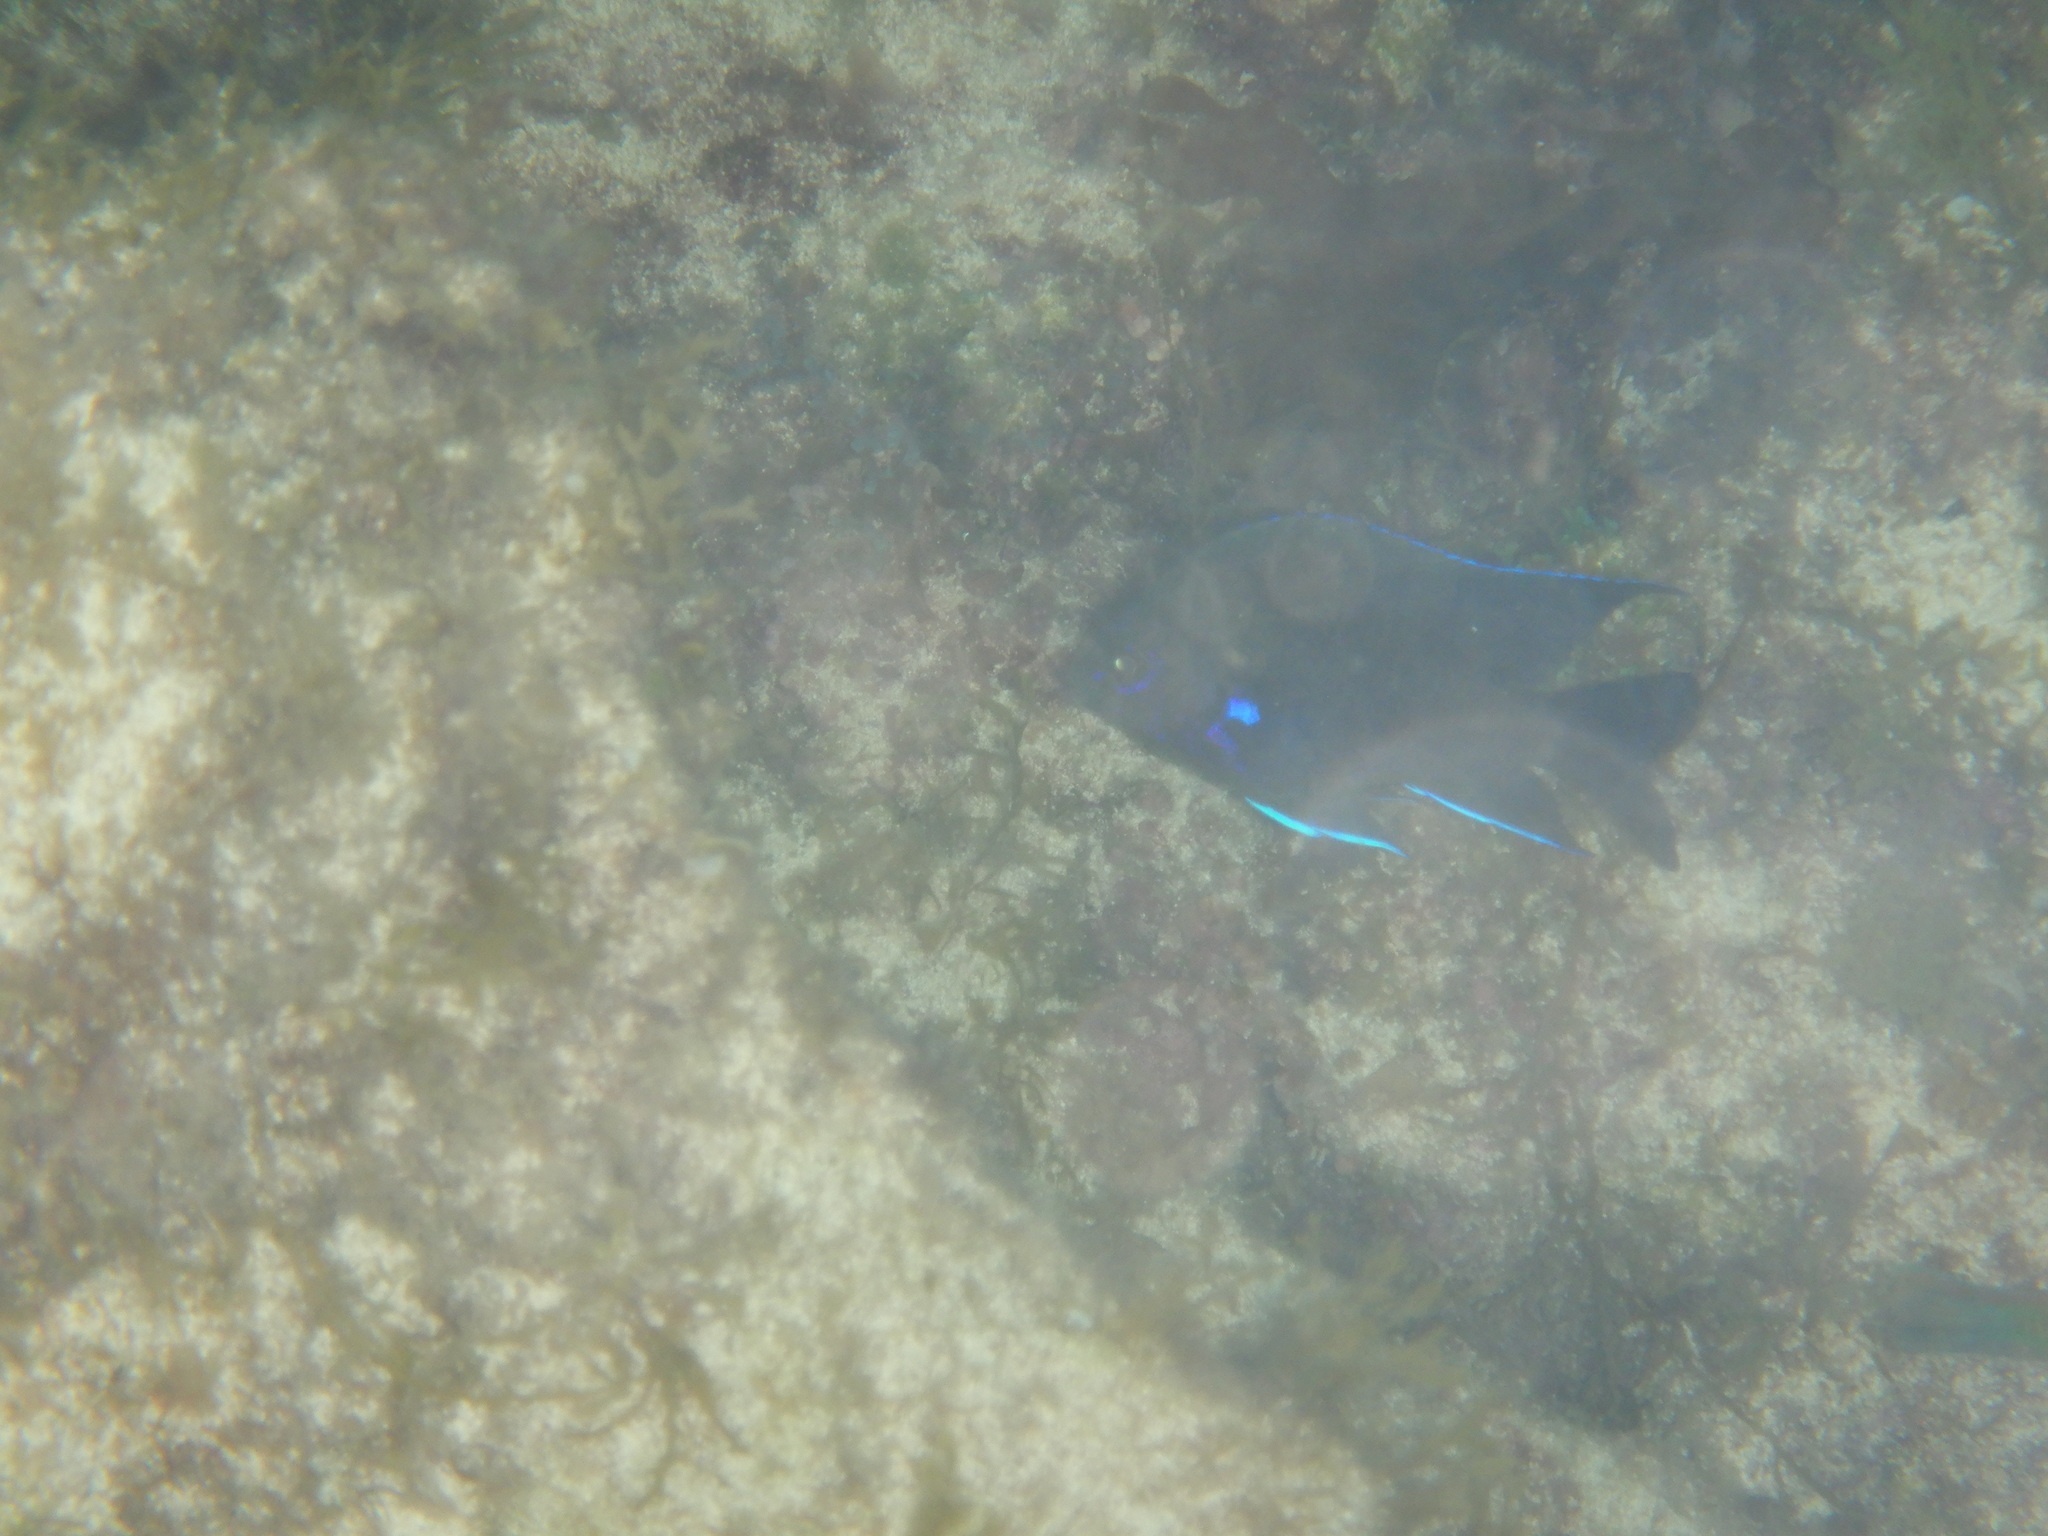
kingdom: Animalia
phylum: Chordata
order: Perciformes
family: Pomacentridae
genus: Similiparma
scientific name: Similiparma lurida
